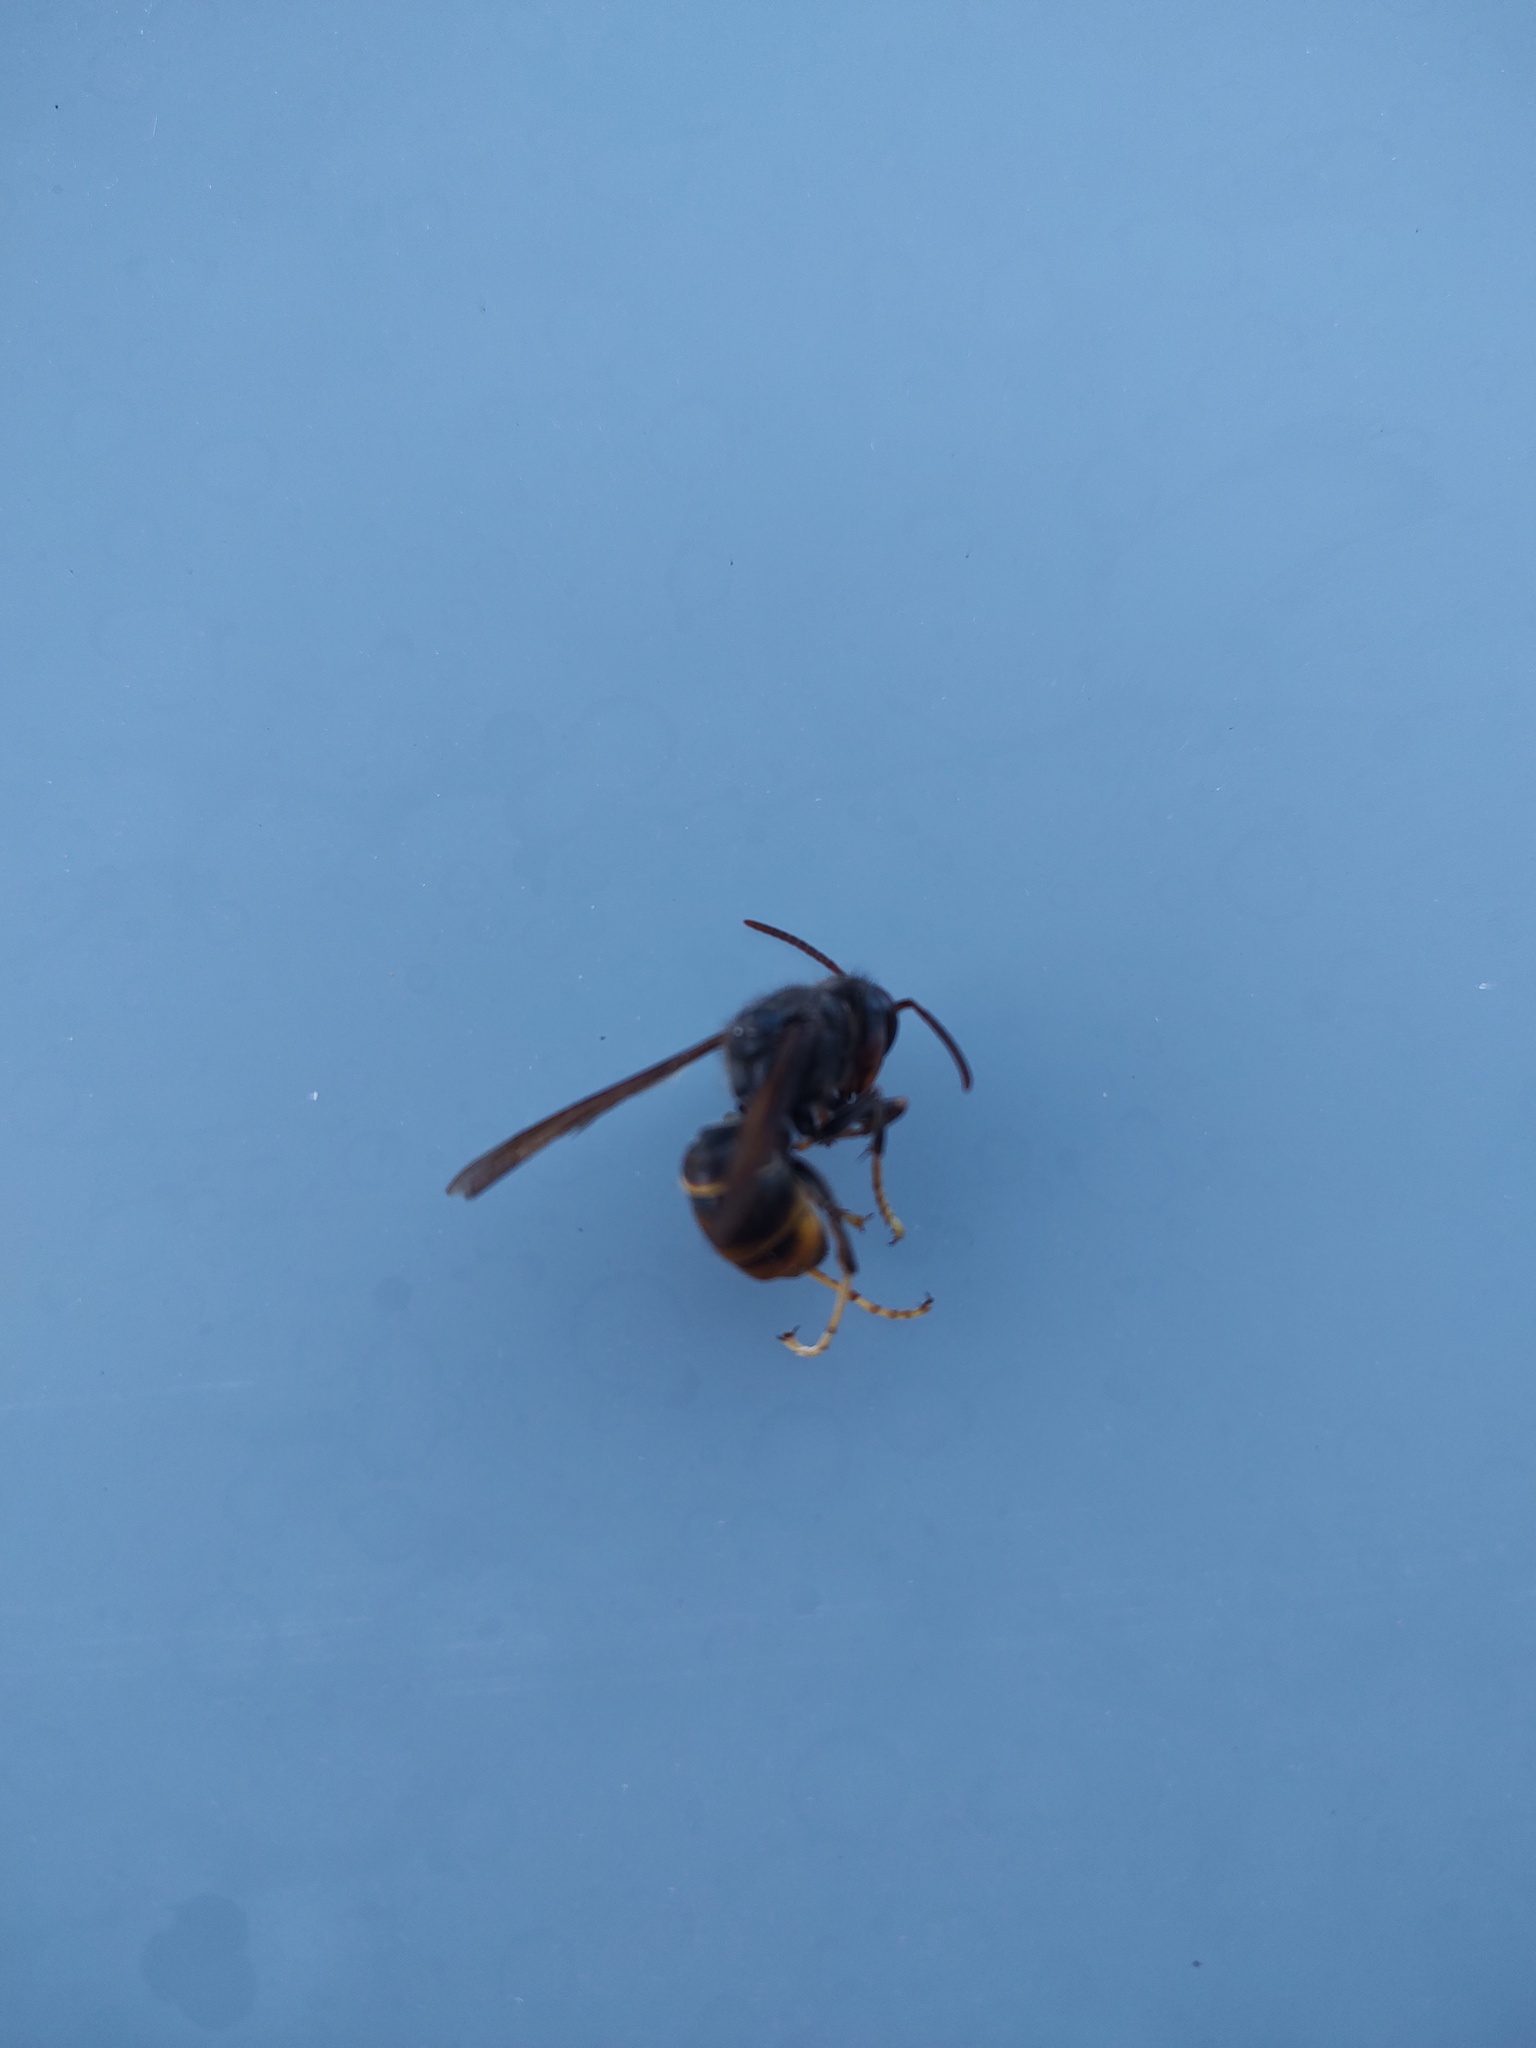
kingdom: Animalia
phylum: Arthropoda
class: Insecta
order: Hymenoptera
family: Vespidae
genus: Vespa
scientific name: Vespa velutina
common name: Asian hornet
